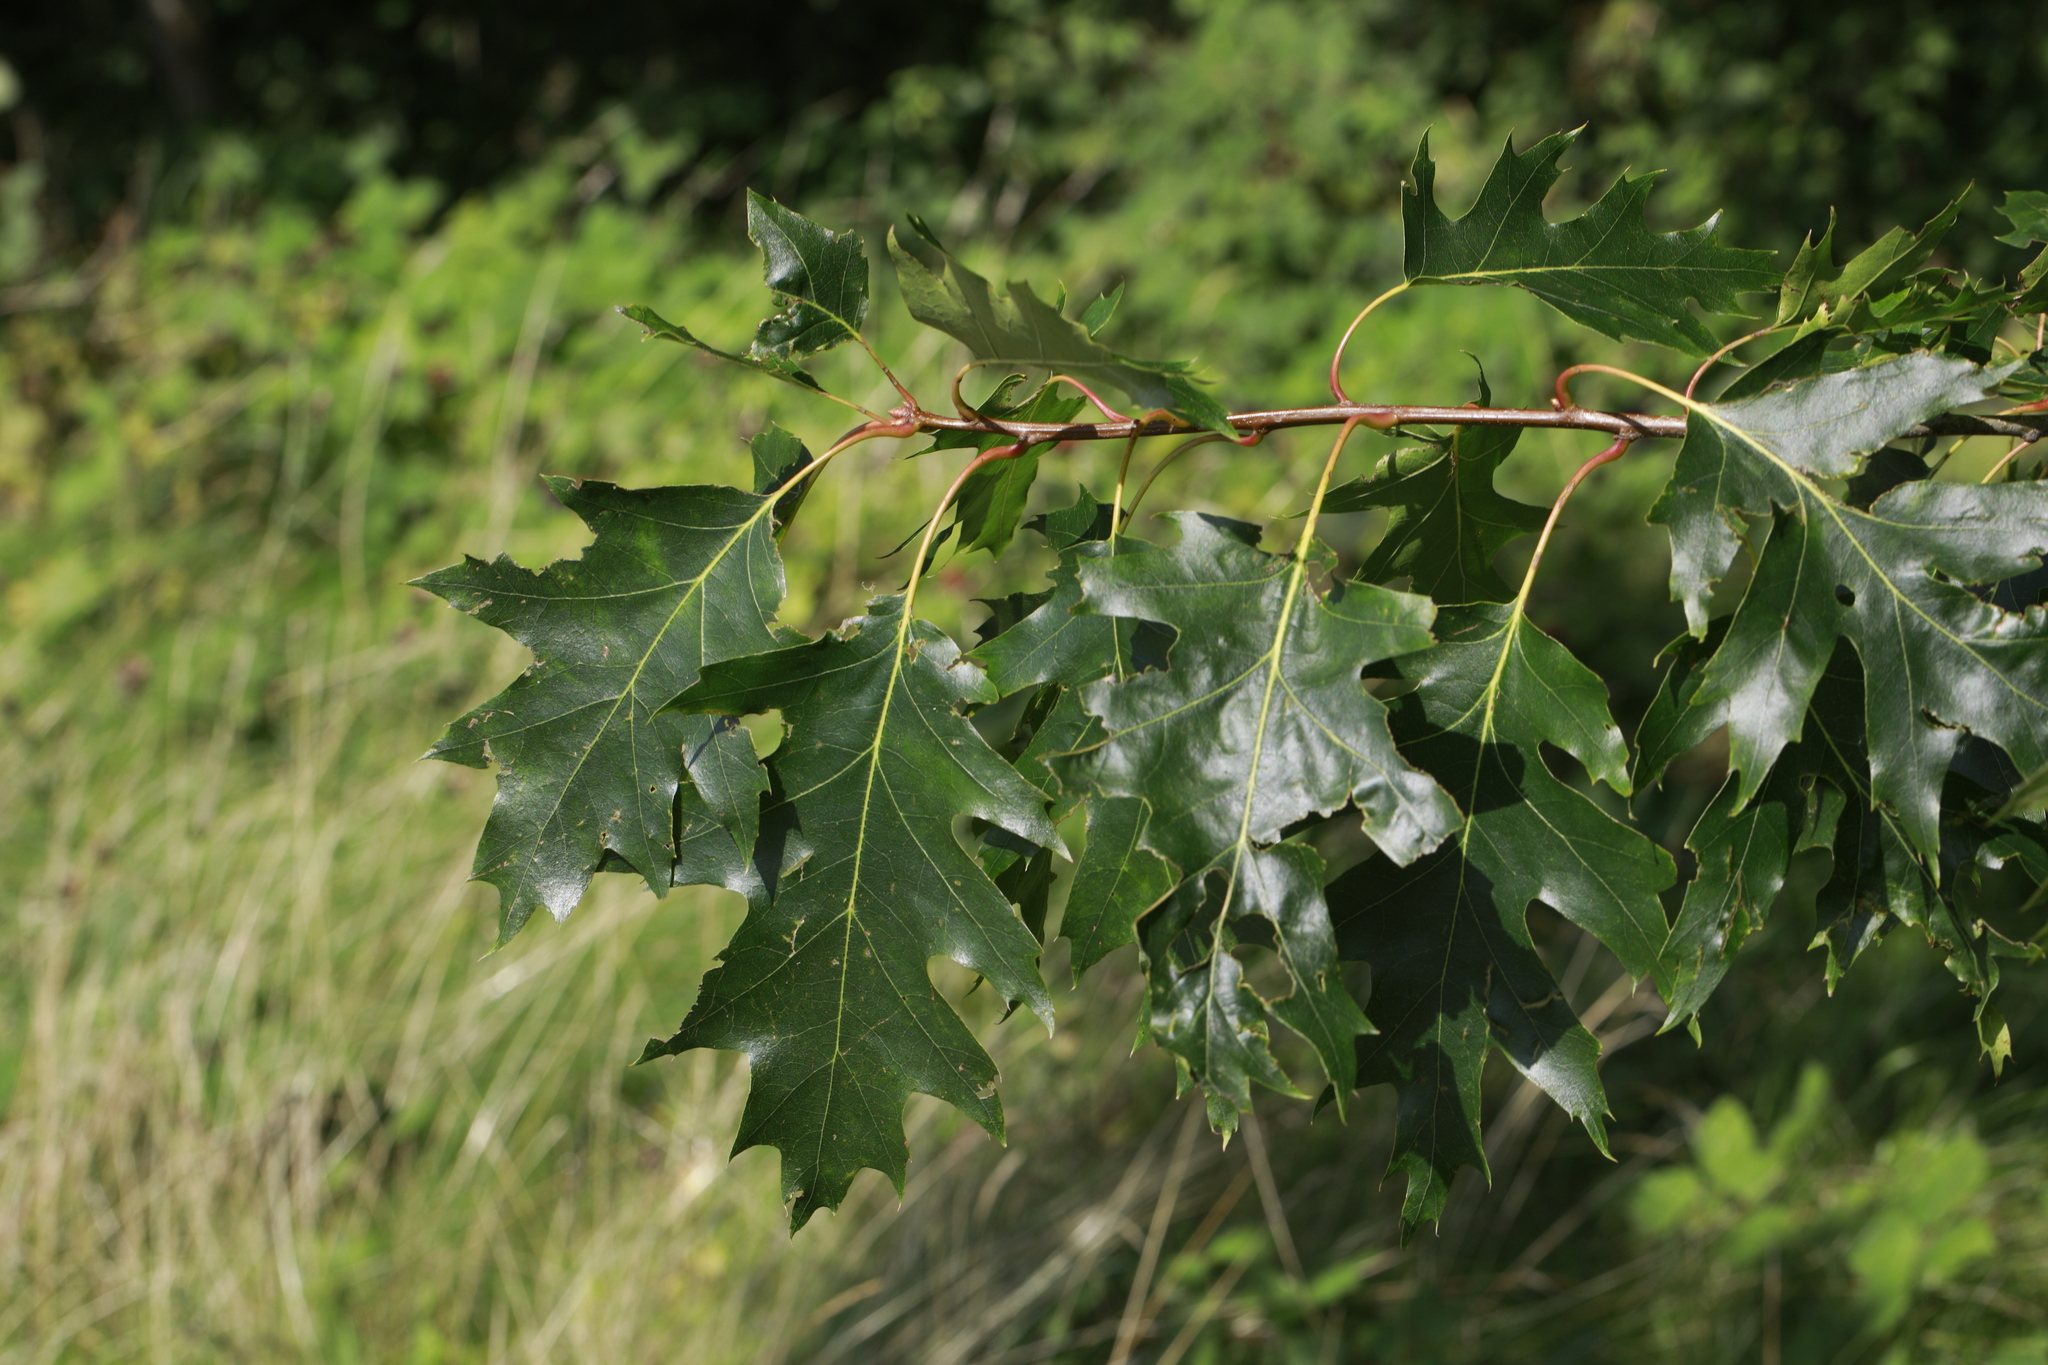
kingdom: Plantae
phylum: Tracheophyta
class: Magnoliopsida
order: Fagales
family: Fagaceae
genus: Quercus
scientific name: Quercus rubra
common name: Red oak
